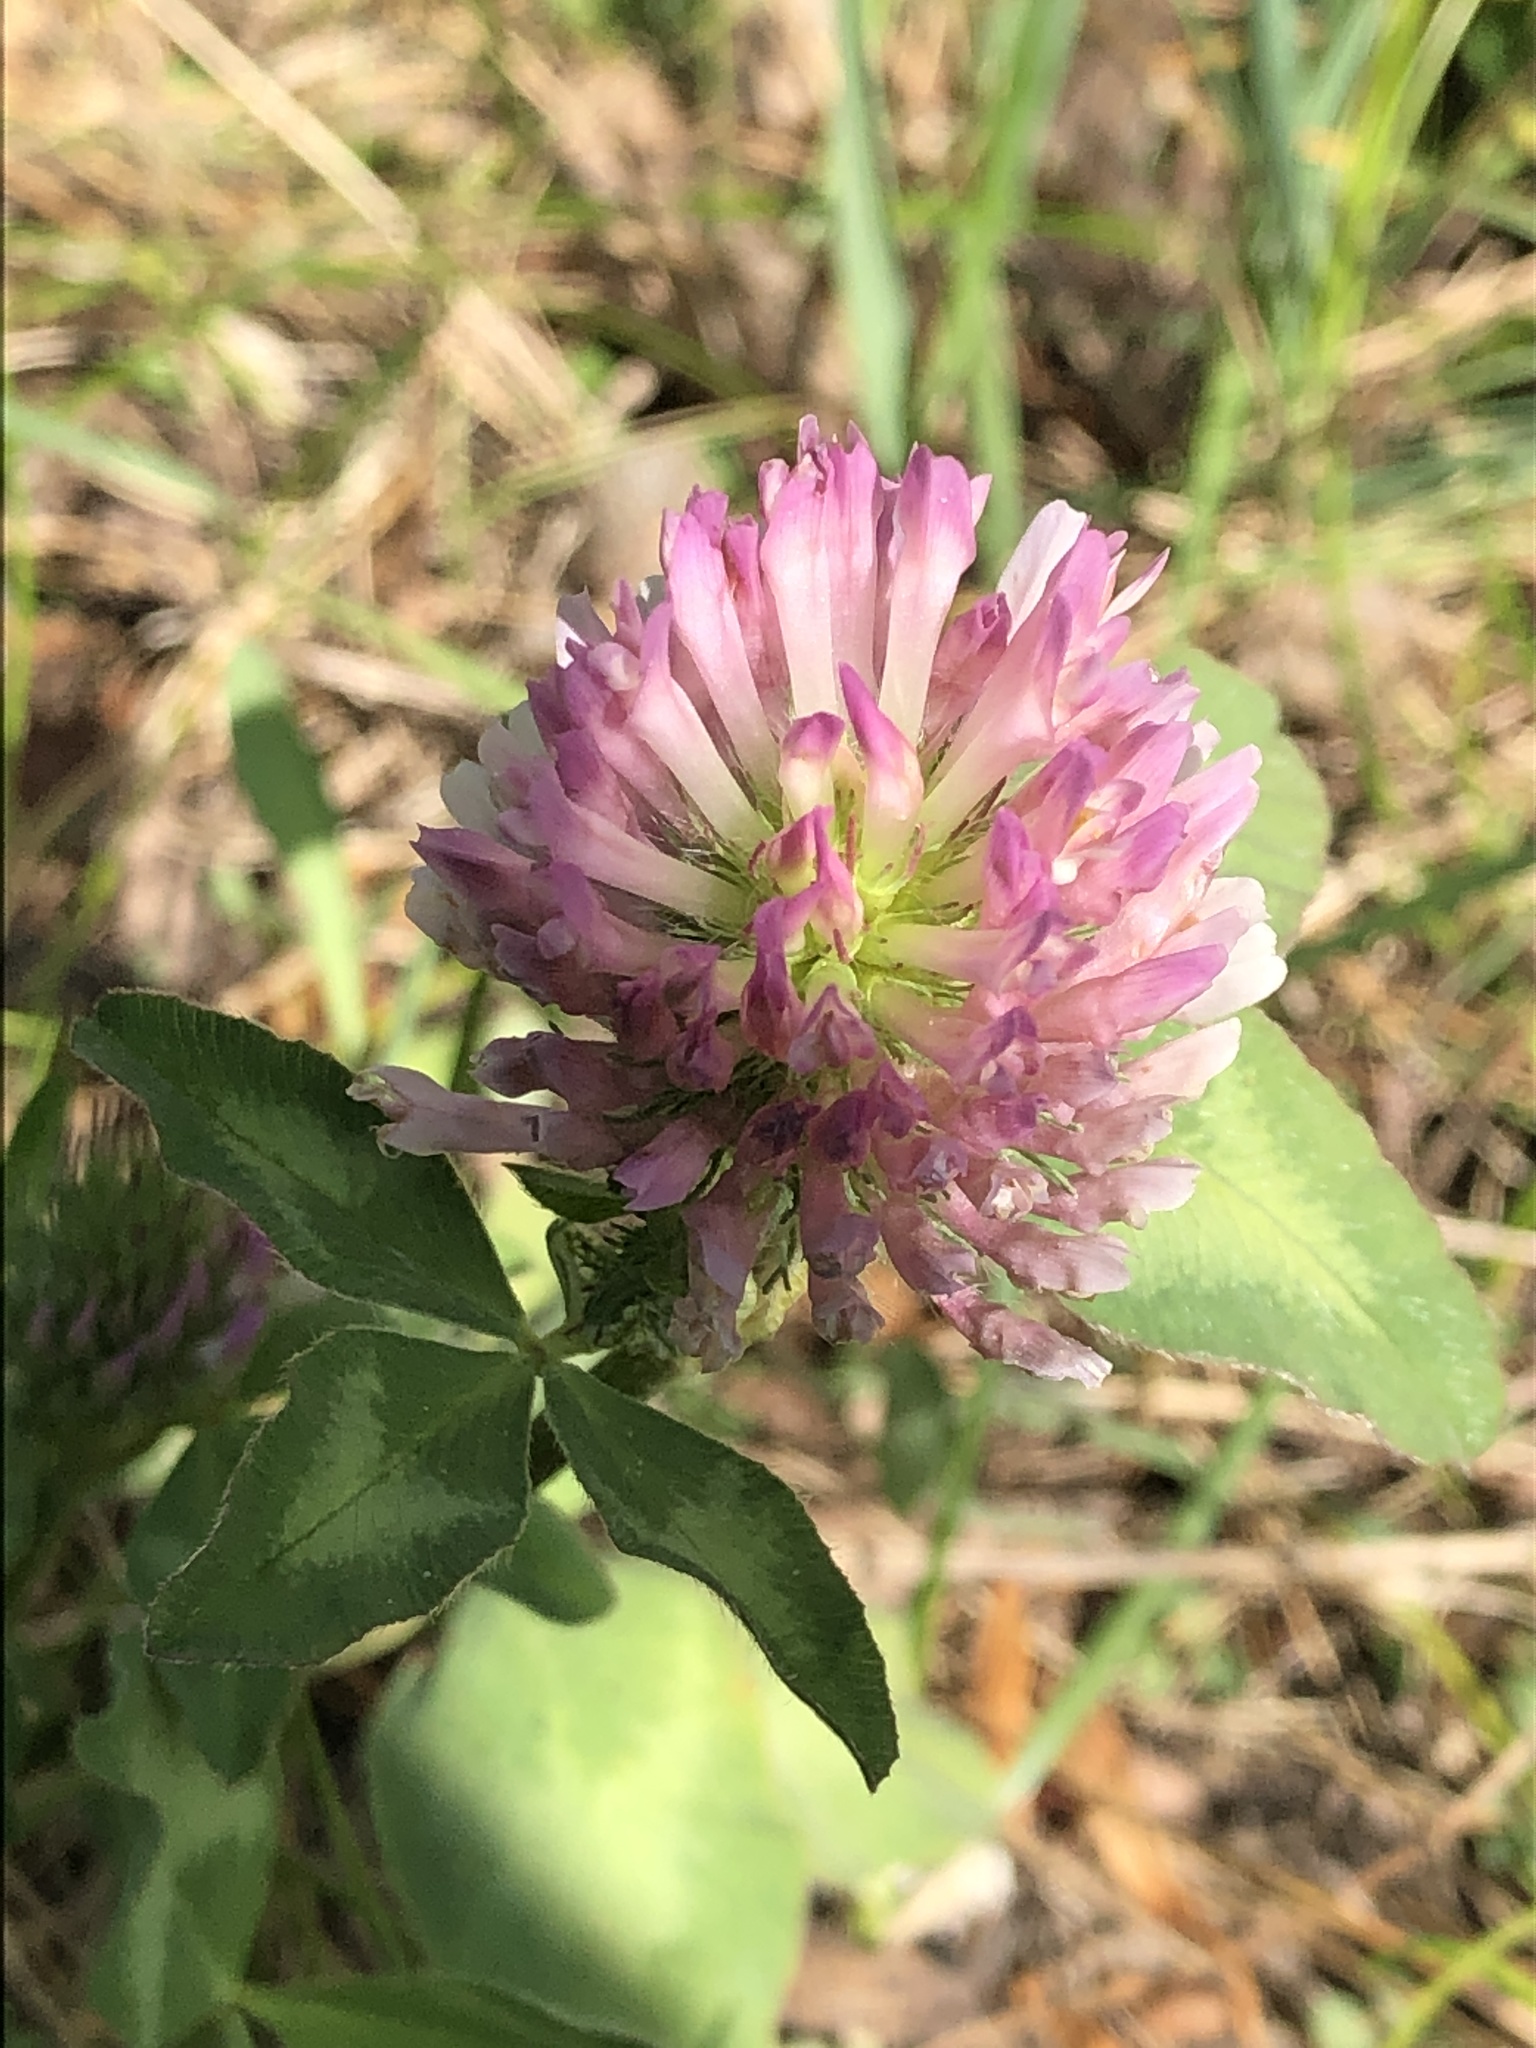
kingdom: Plantae
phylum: Tracheophyta
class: Magnoliopsida
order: Fabales
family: Fabaceae
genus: Trifolium
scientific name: Trifolium pratense
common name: Red clover
